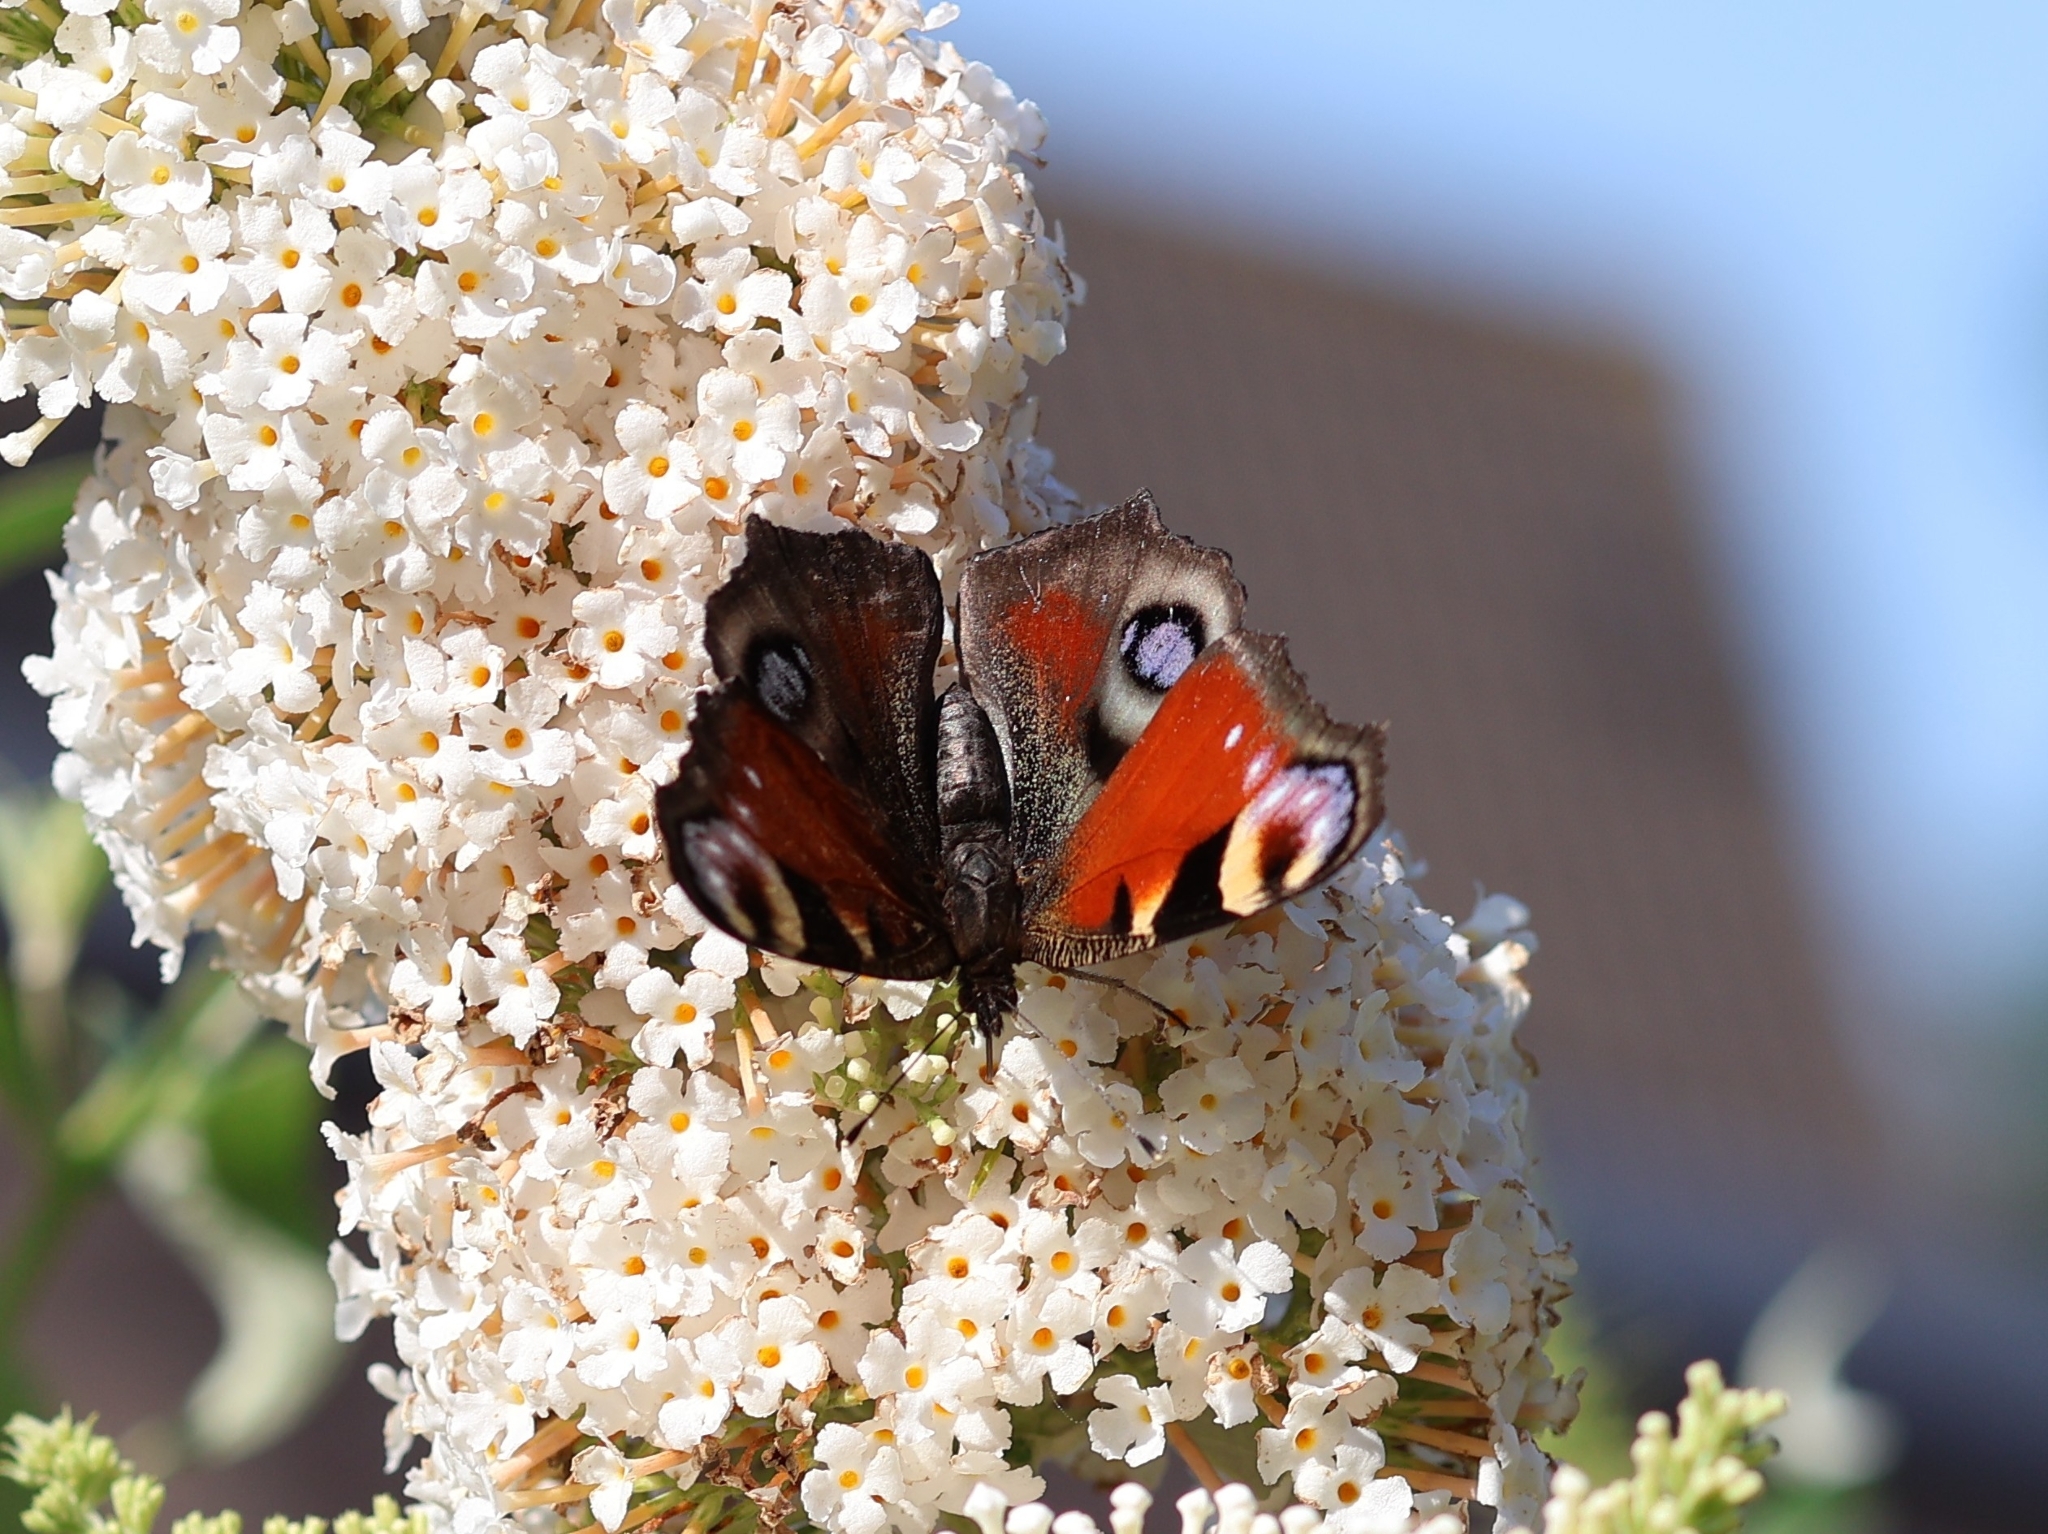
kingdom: Animalia
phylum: Arthropoda
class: Insecta
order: Lepidoptera
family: Nymphalidae
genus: Aglais
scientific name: Aglais io
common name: Peacock
